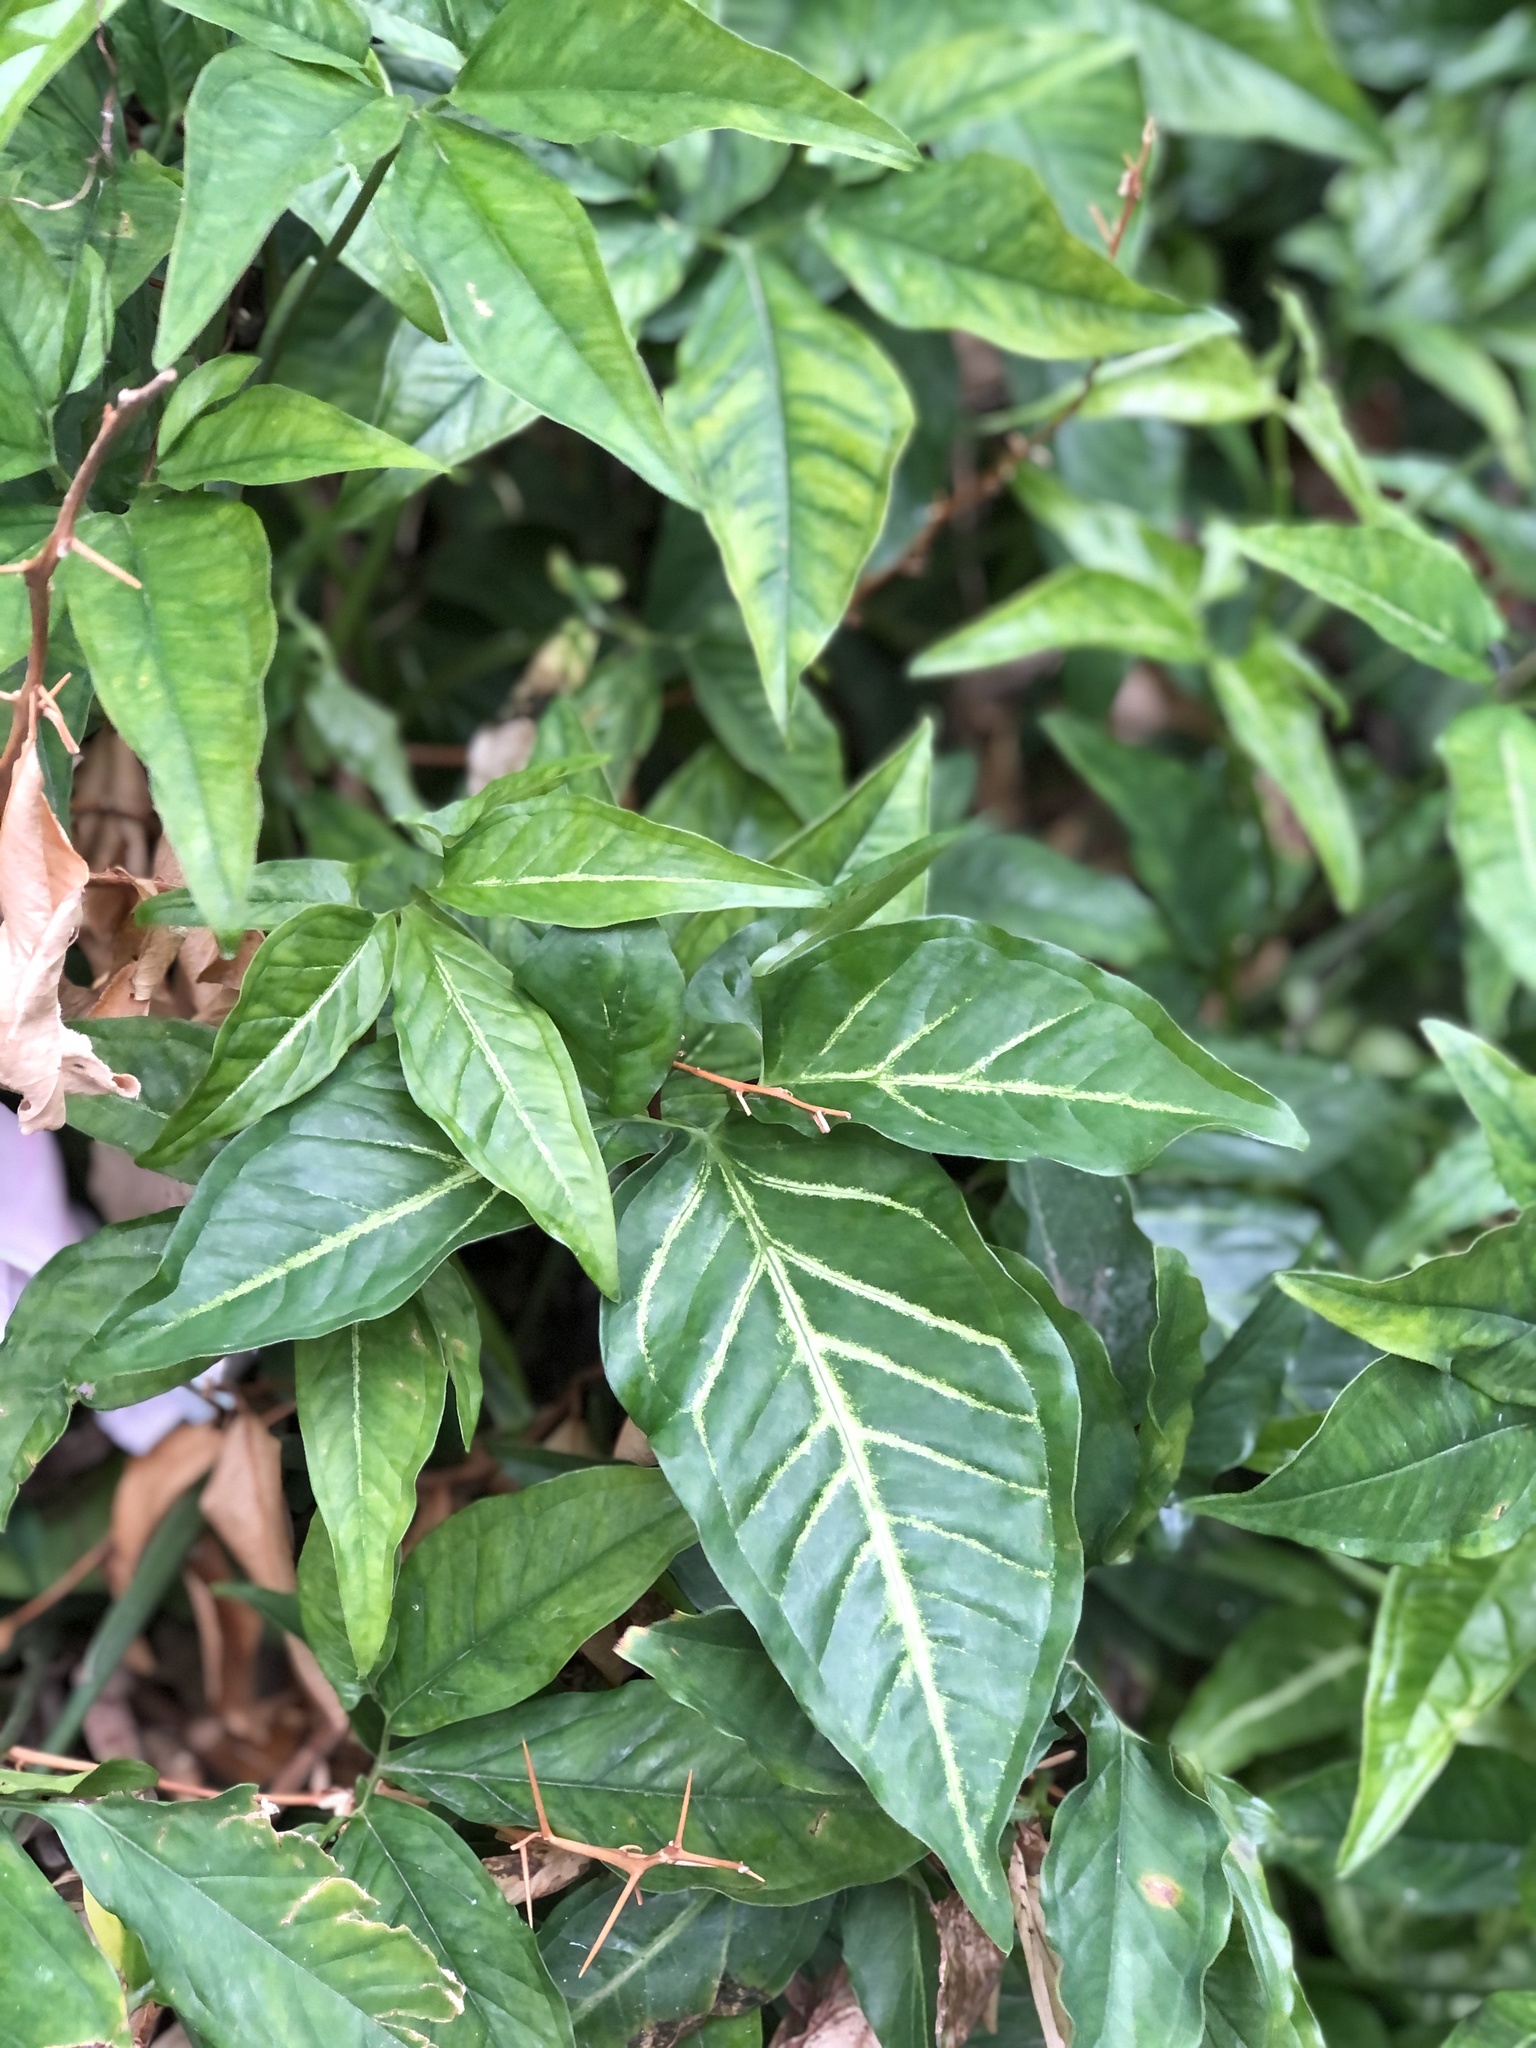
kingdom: Plantae
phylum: Tracheophyta
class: Liliopsida
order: Alismatales
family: Araceae
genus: Syngonium
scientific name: Syngonium podophyllum
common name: American evergreen
